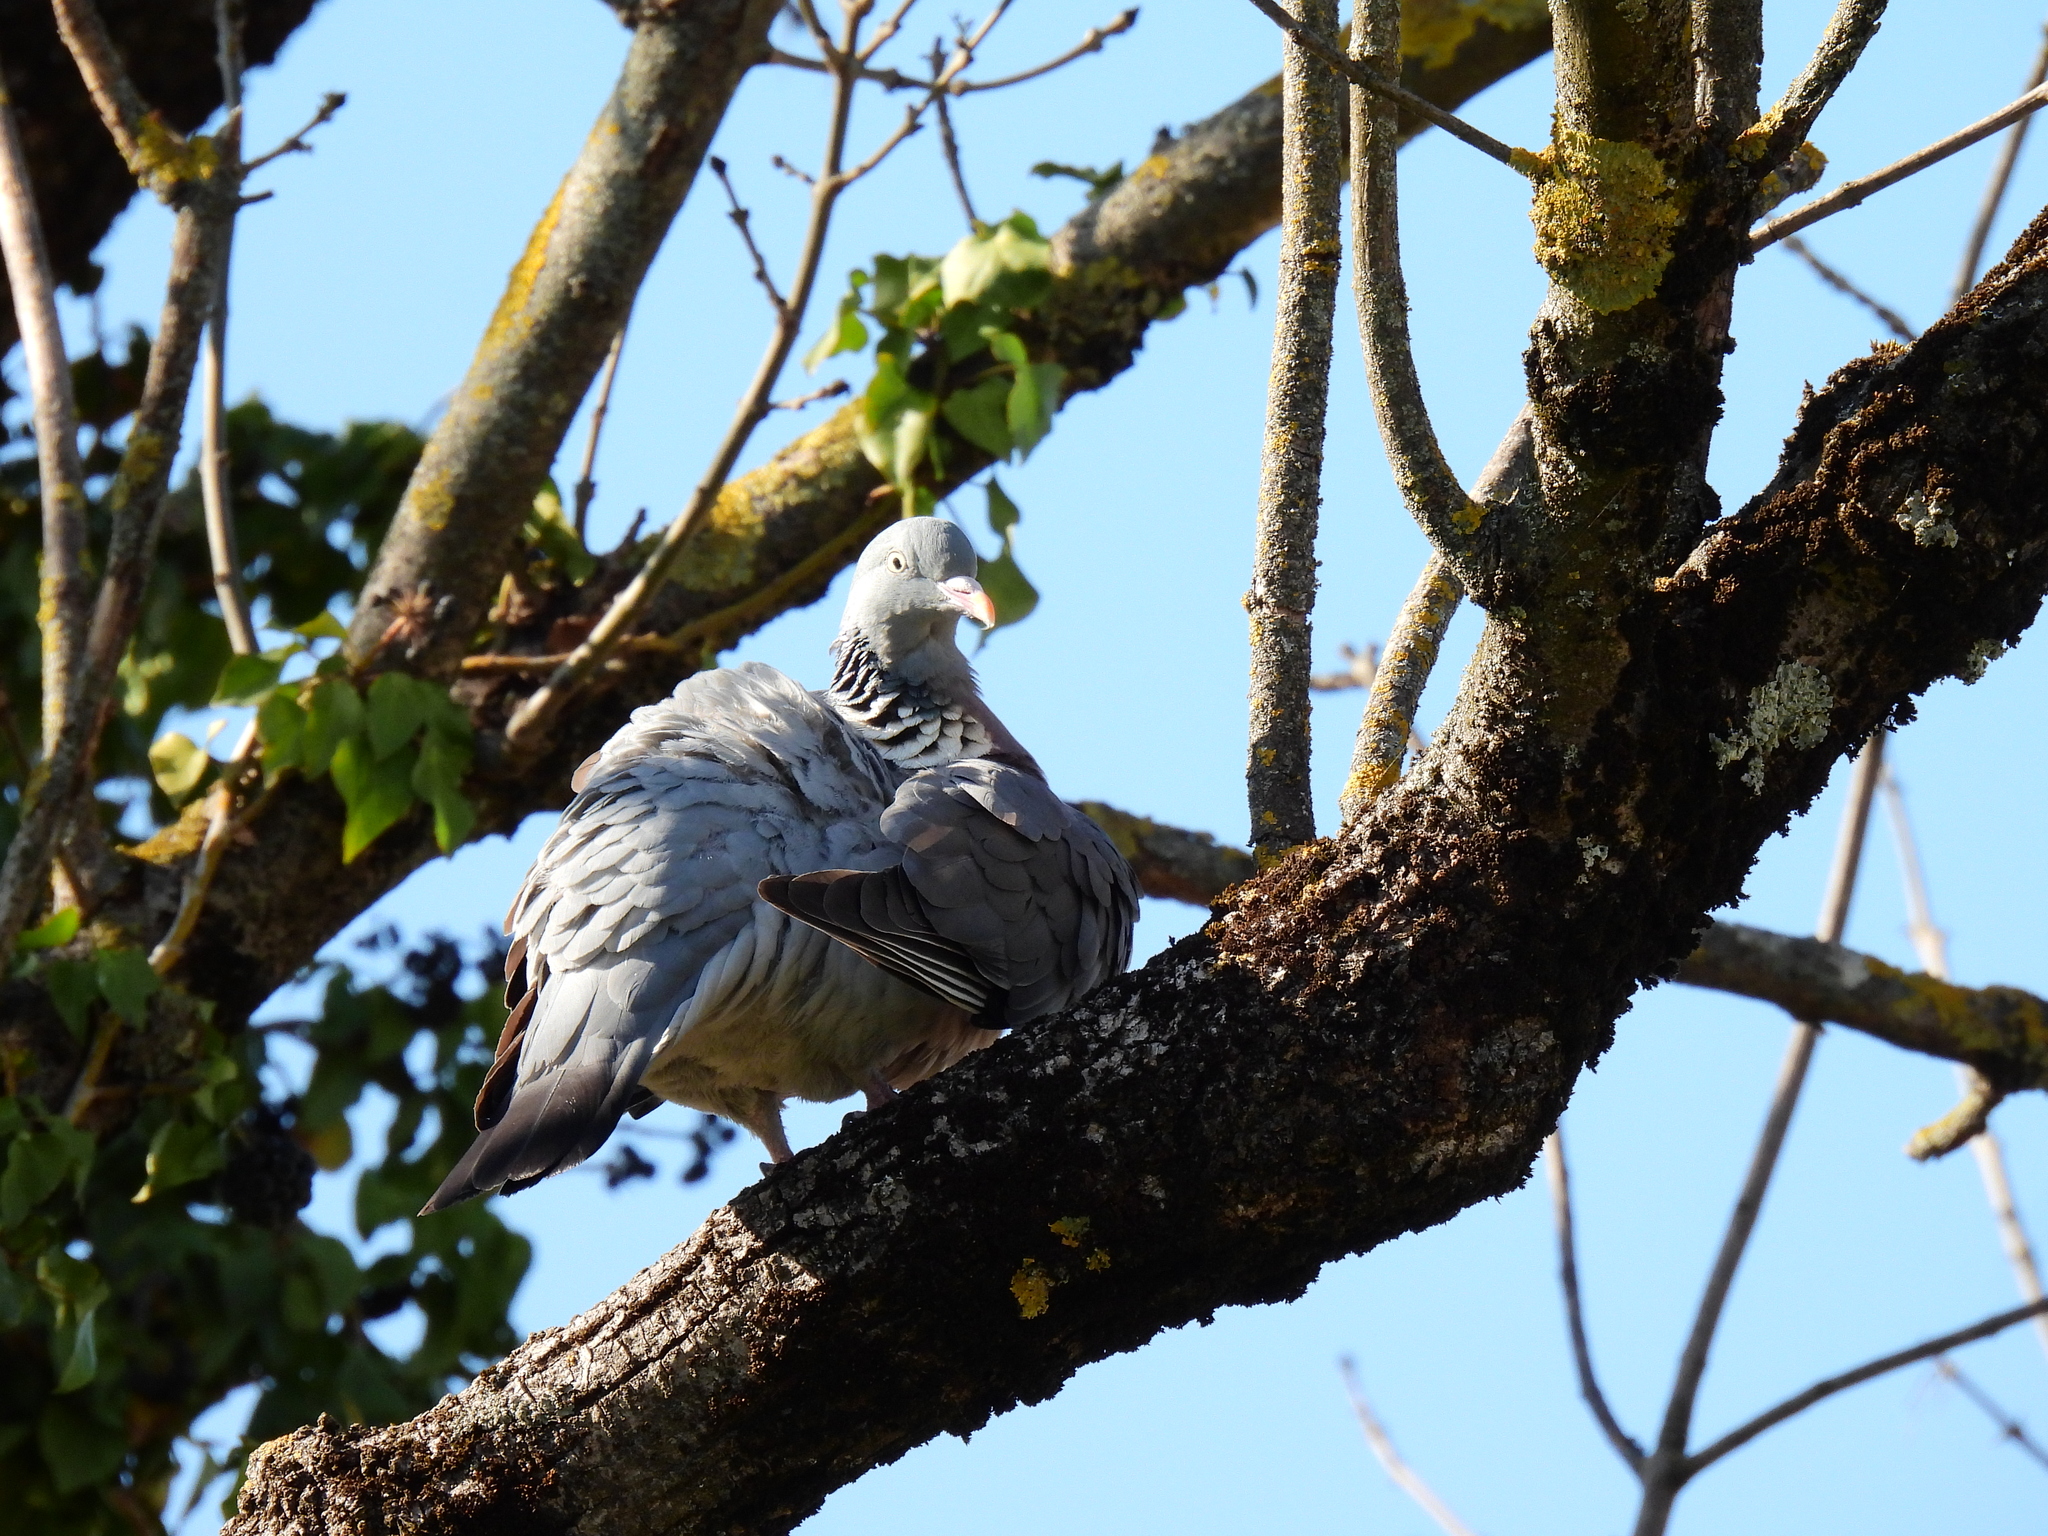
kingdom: Animalia
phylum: Chordata
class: Aves
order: Columbiformes
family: Columbidae
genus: Columba
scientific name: Columba palumbus
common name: Common wood pigeon
